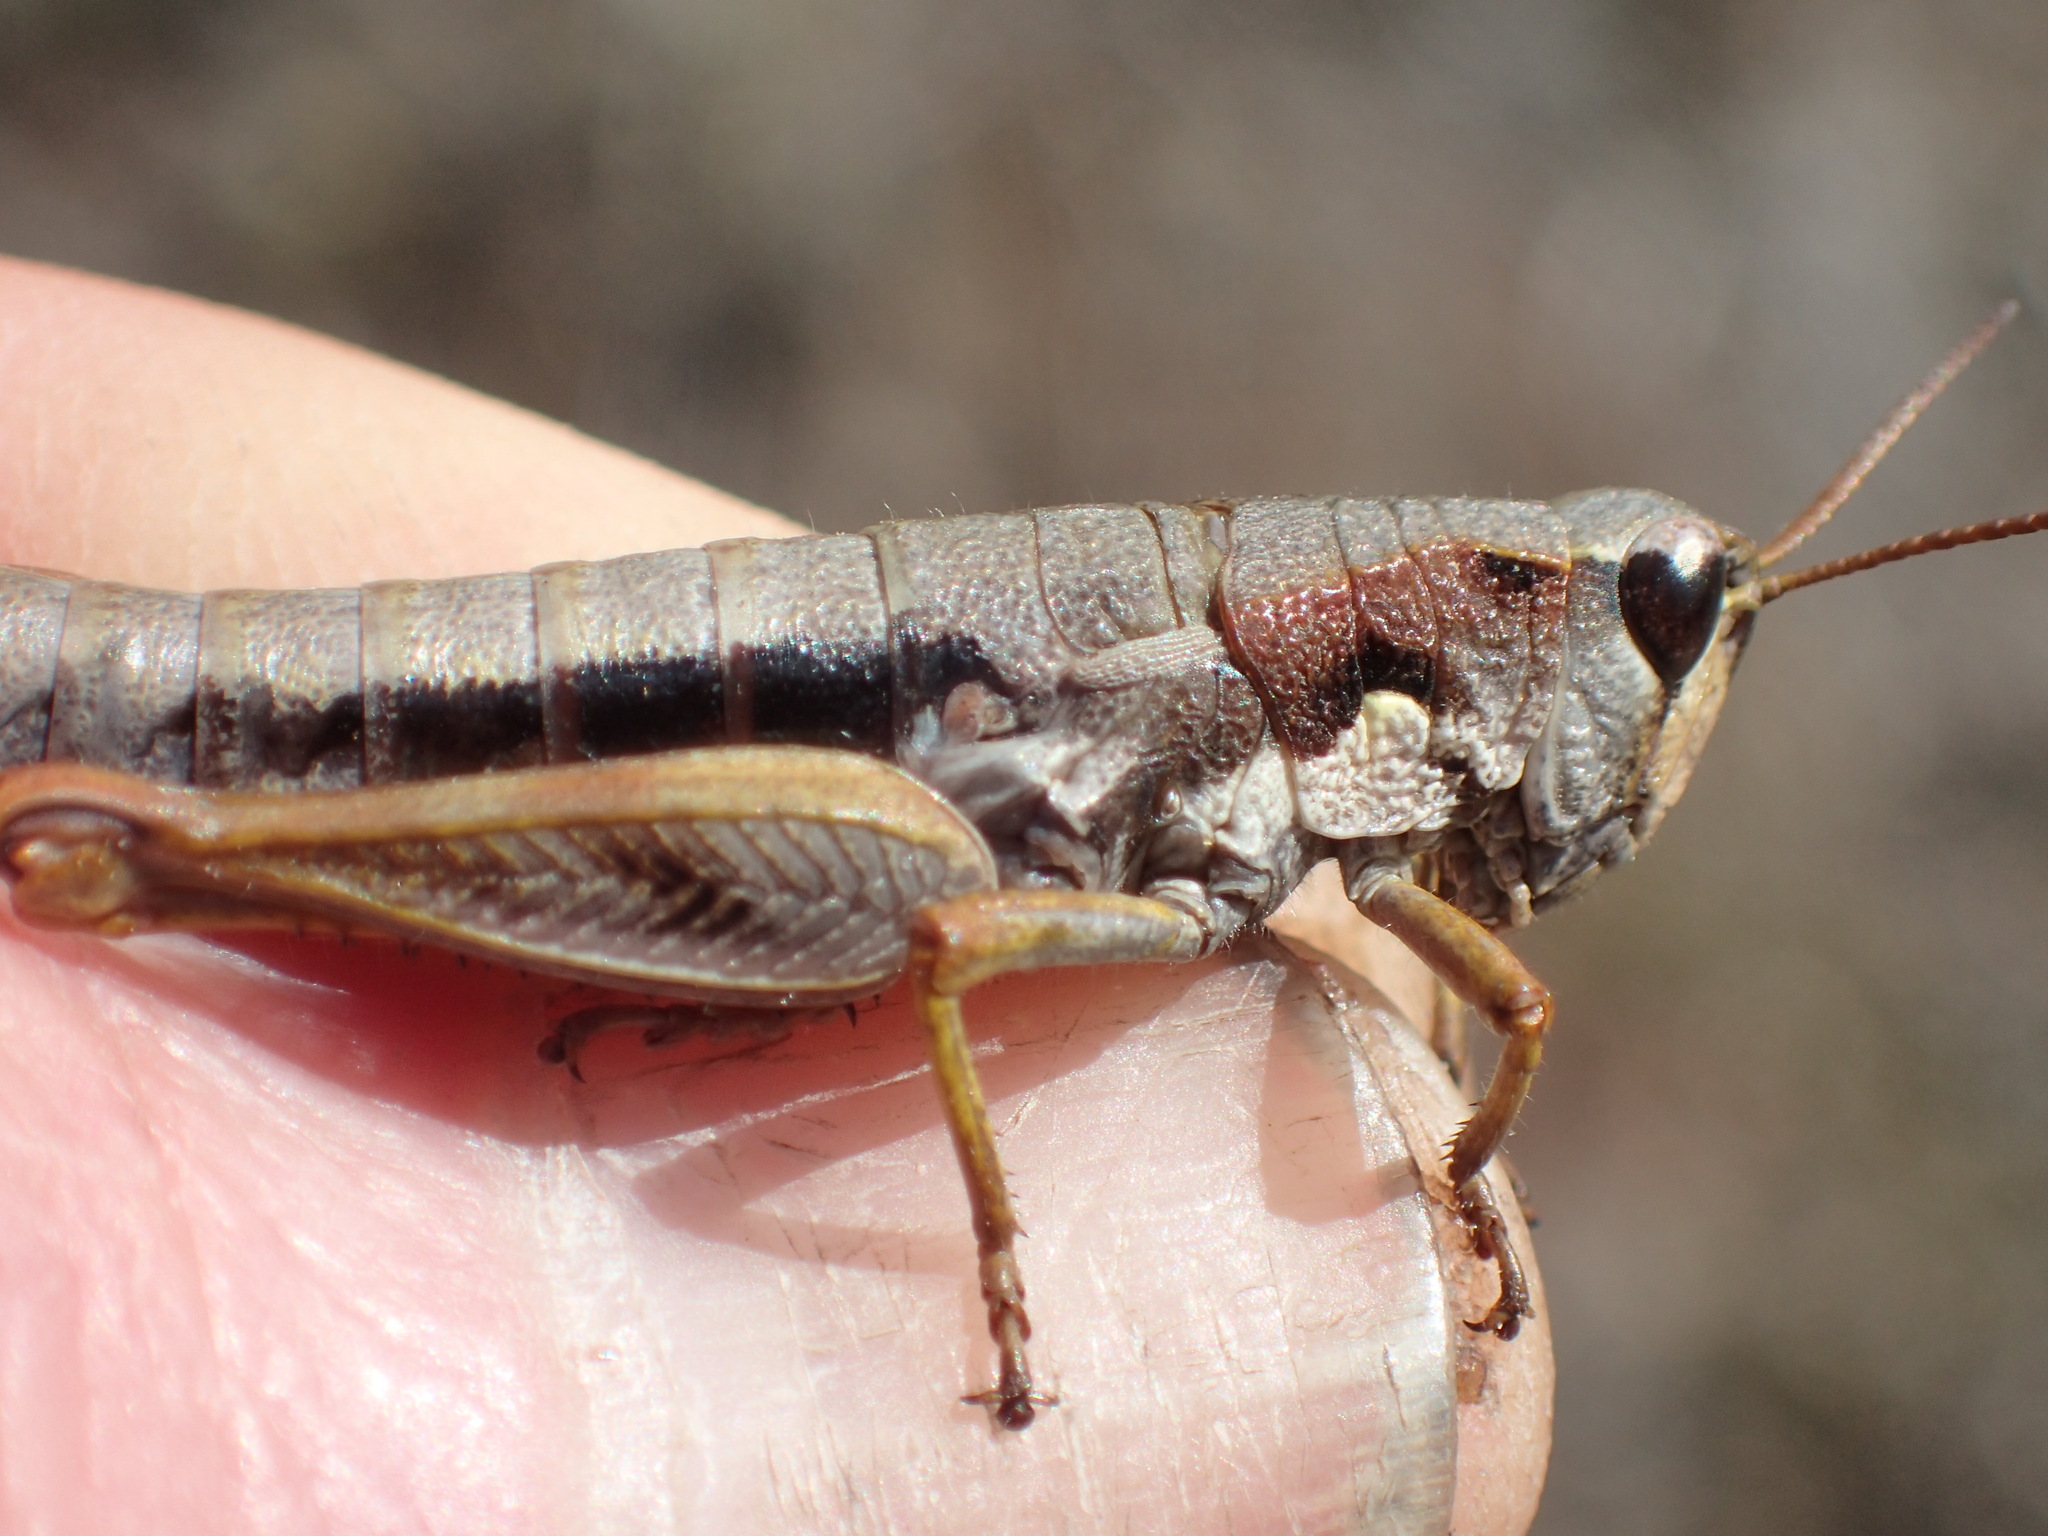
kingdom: Animalia
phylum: Arthropoda
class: Insecta
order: Orthoptera
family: Acrididae
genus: Tasmaniacris
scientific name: Tasmaniacris tasmaniensis
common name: Tasmanian grasshopper
